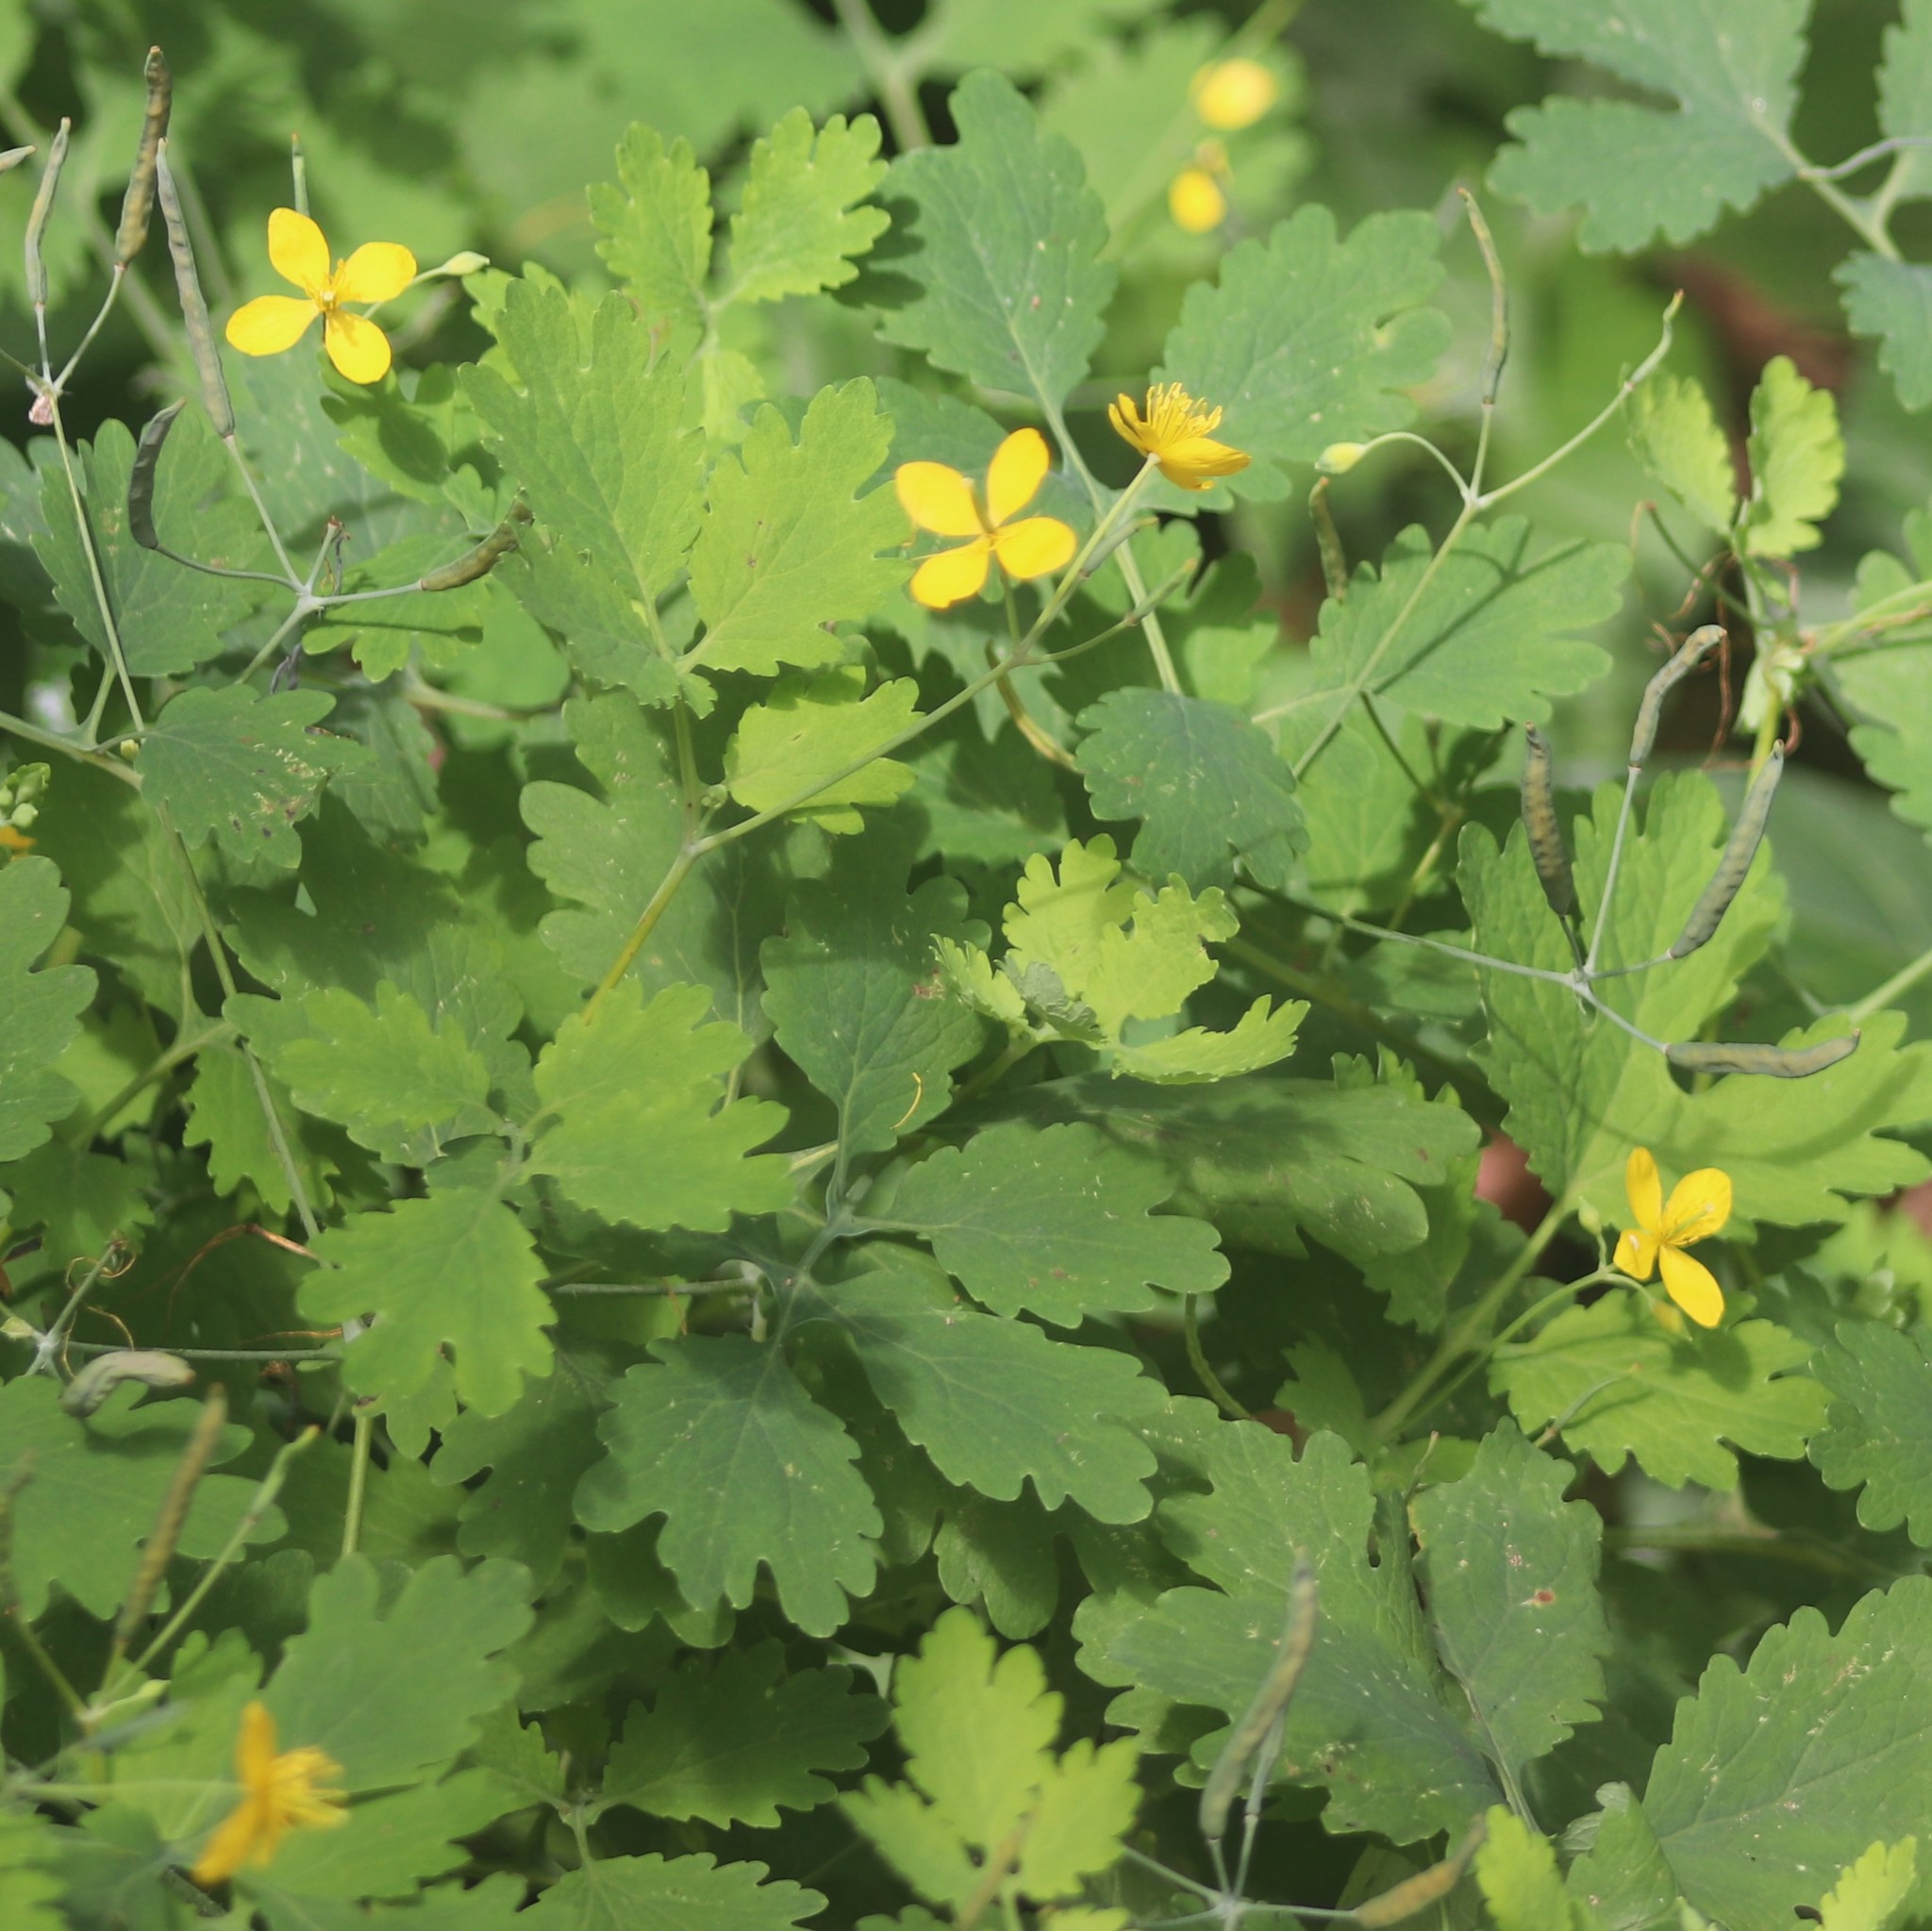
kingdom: Plantae
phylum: Tracheophyta
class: Magnoliopsida
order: Ranunculales
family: Papaveraceae
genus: Chelidonium
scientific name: Chelidonium majus
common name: Greater celandine
